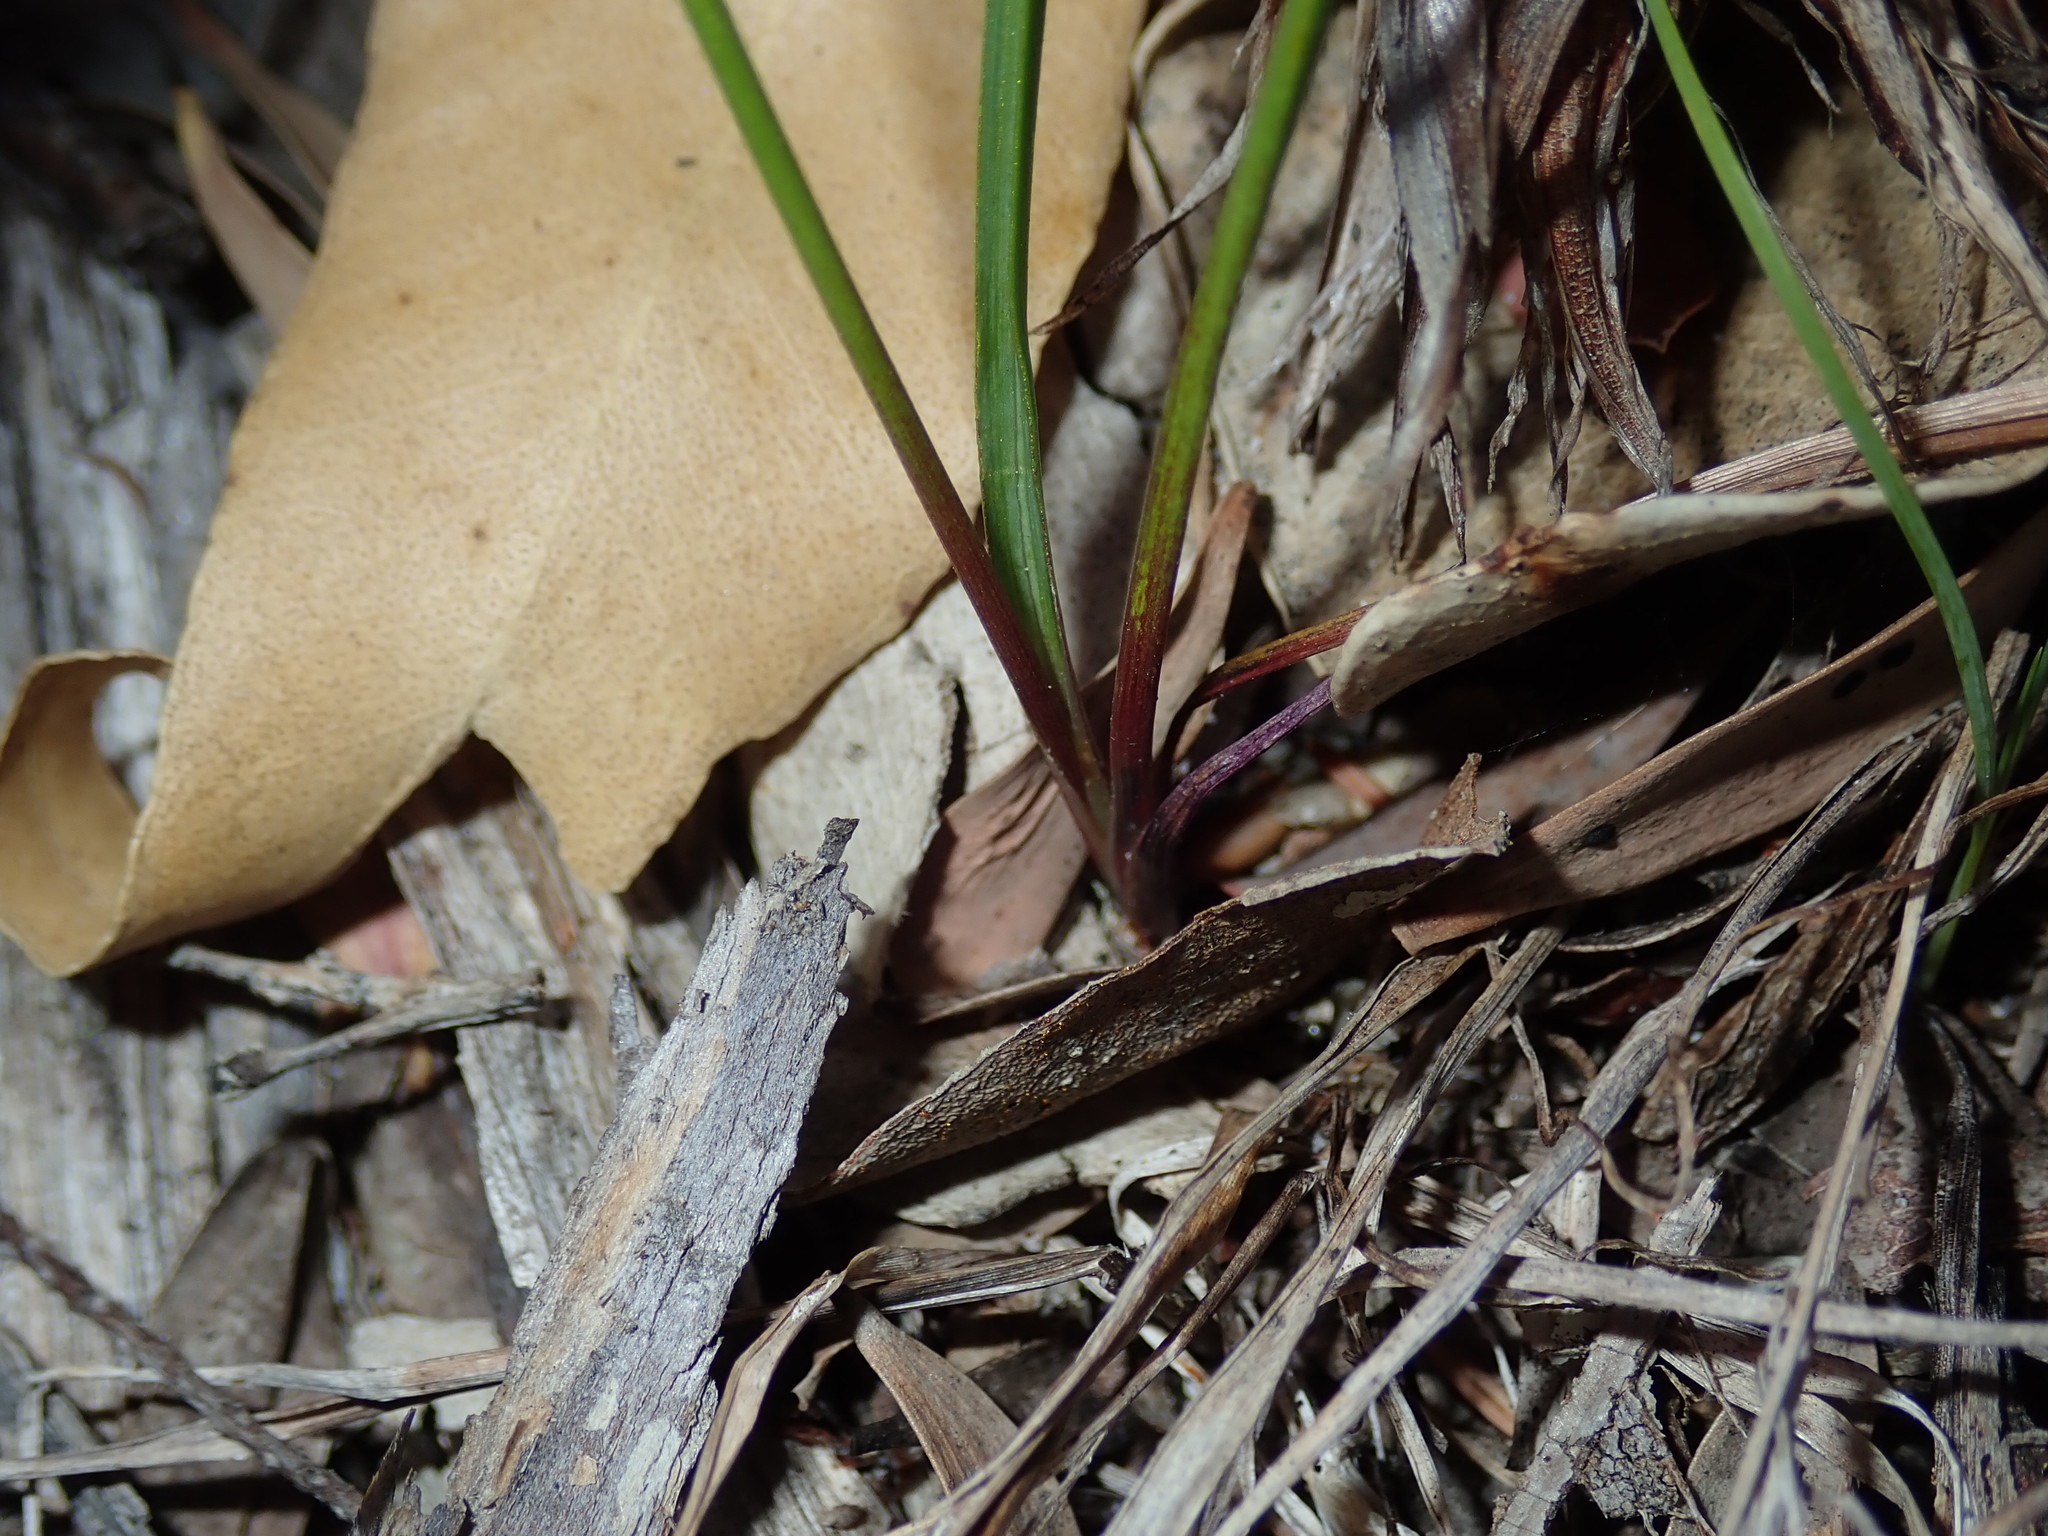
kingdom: Plantae
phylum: Tracheophyta
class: Liliopsida
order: Asparagales
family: Asphodelaceae
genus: Caesia
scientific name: Caesia parviflora
